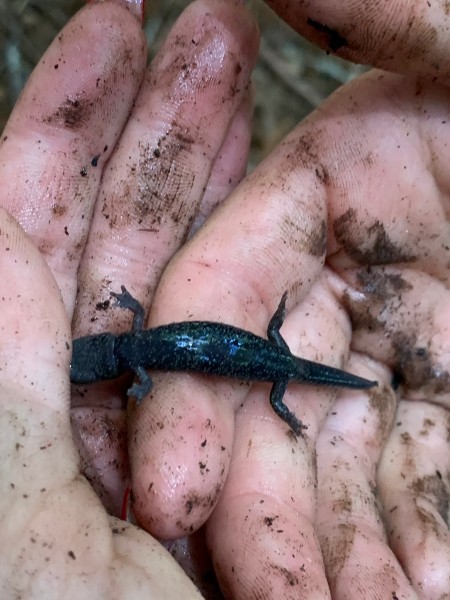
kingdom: Animalia
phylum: Chordata
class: Amphibia
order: Caudata
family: Plethodontidae
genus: Aneides
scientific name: Aneides flavipunctatus
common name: Black salamander
